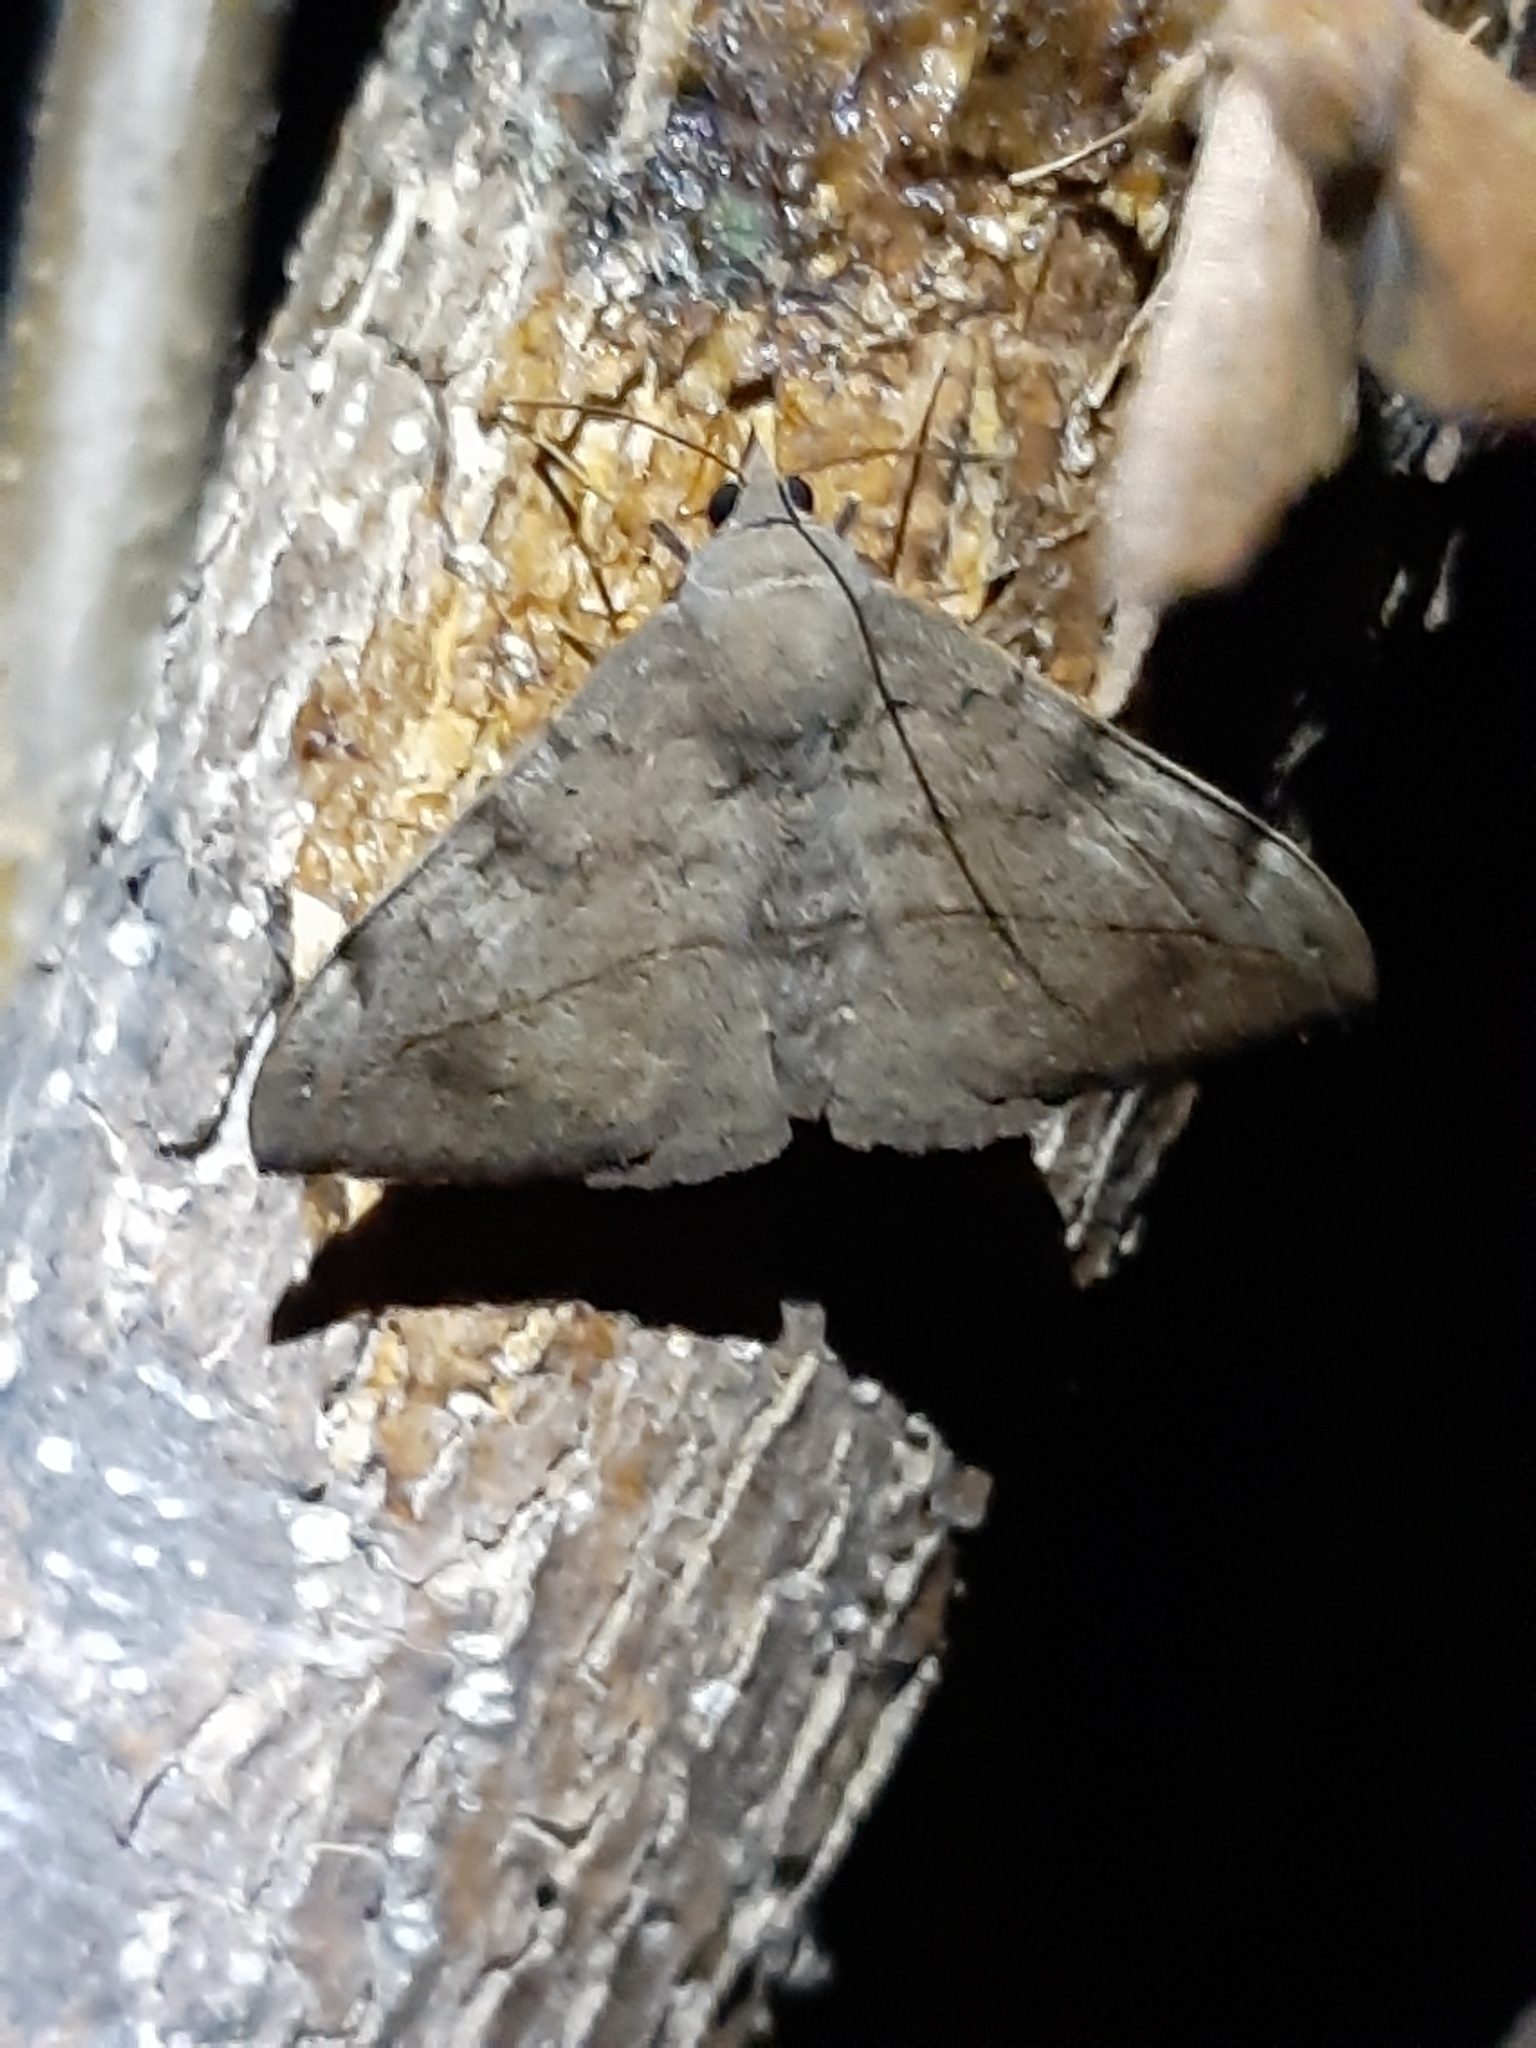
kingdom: Animalia
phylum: Arthropoda
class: Insecta
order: Lepidoptera
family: Erebidae
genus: Anticarsia
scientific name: Anticarsia gemmatalis
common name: Cutworm moth
